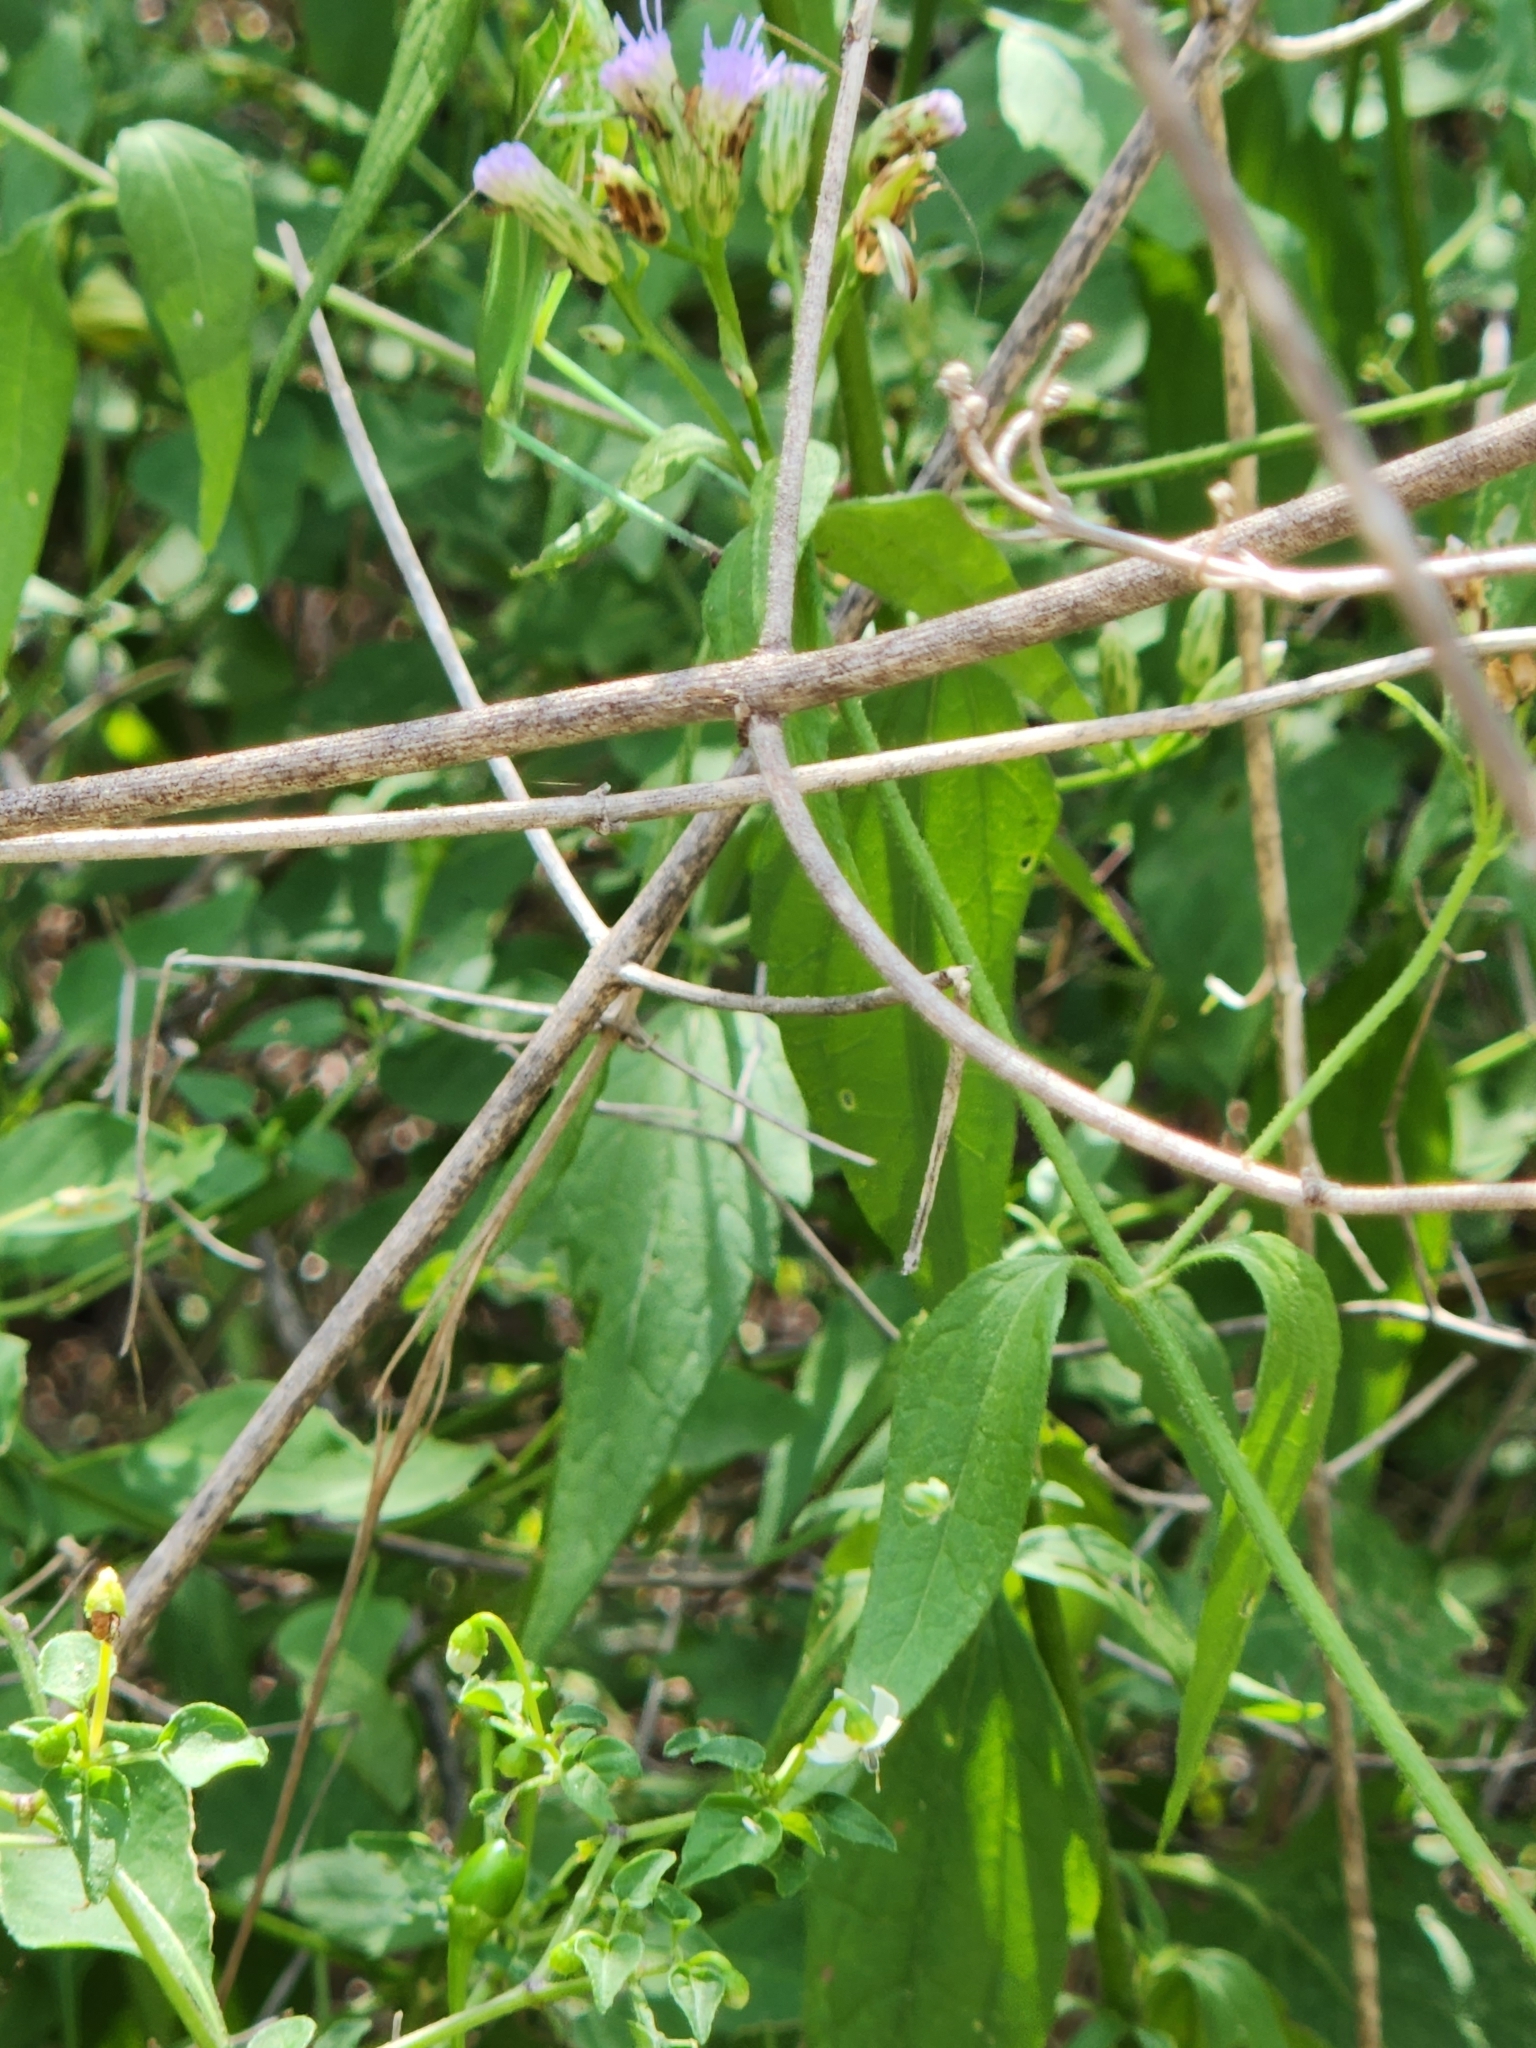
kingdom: Plantae
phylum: Tracheophyta
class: Magnoliopsida
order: Asterales
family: Asteraceae
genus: Chromolaena
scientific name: Chromolaena odorata
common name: Siamweed
